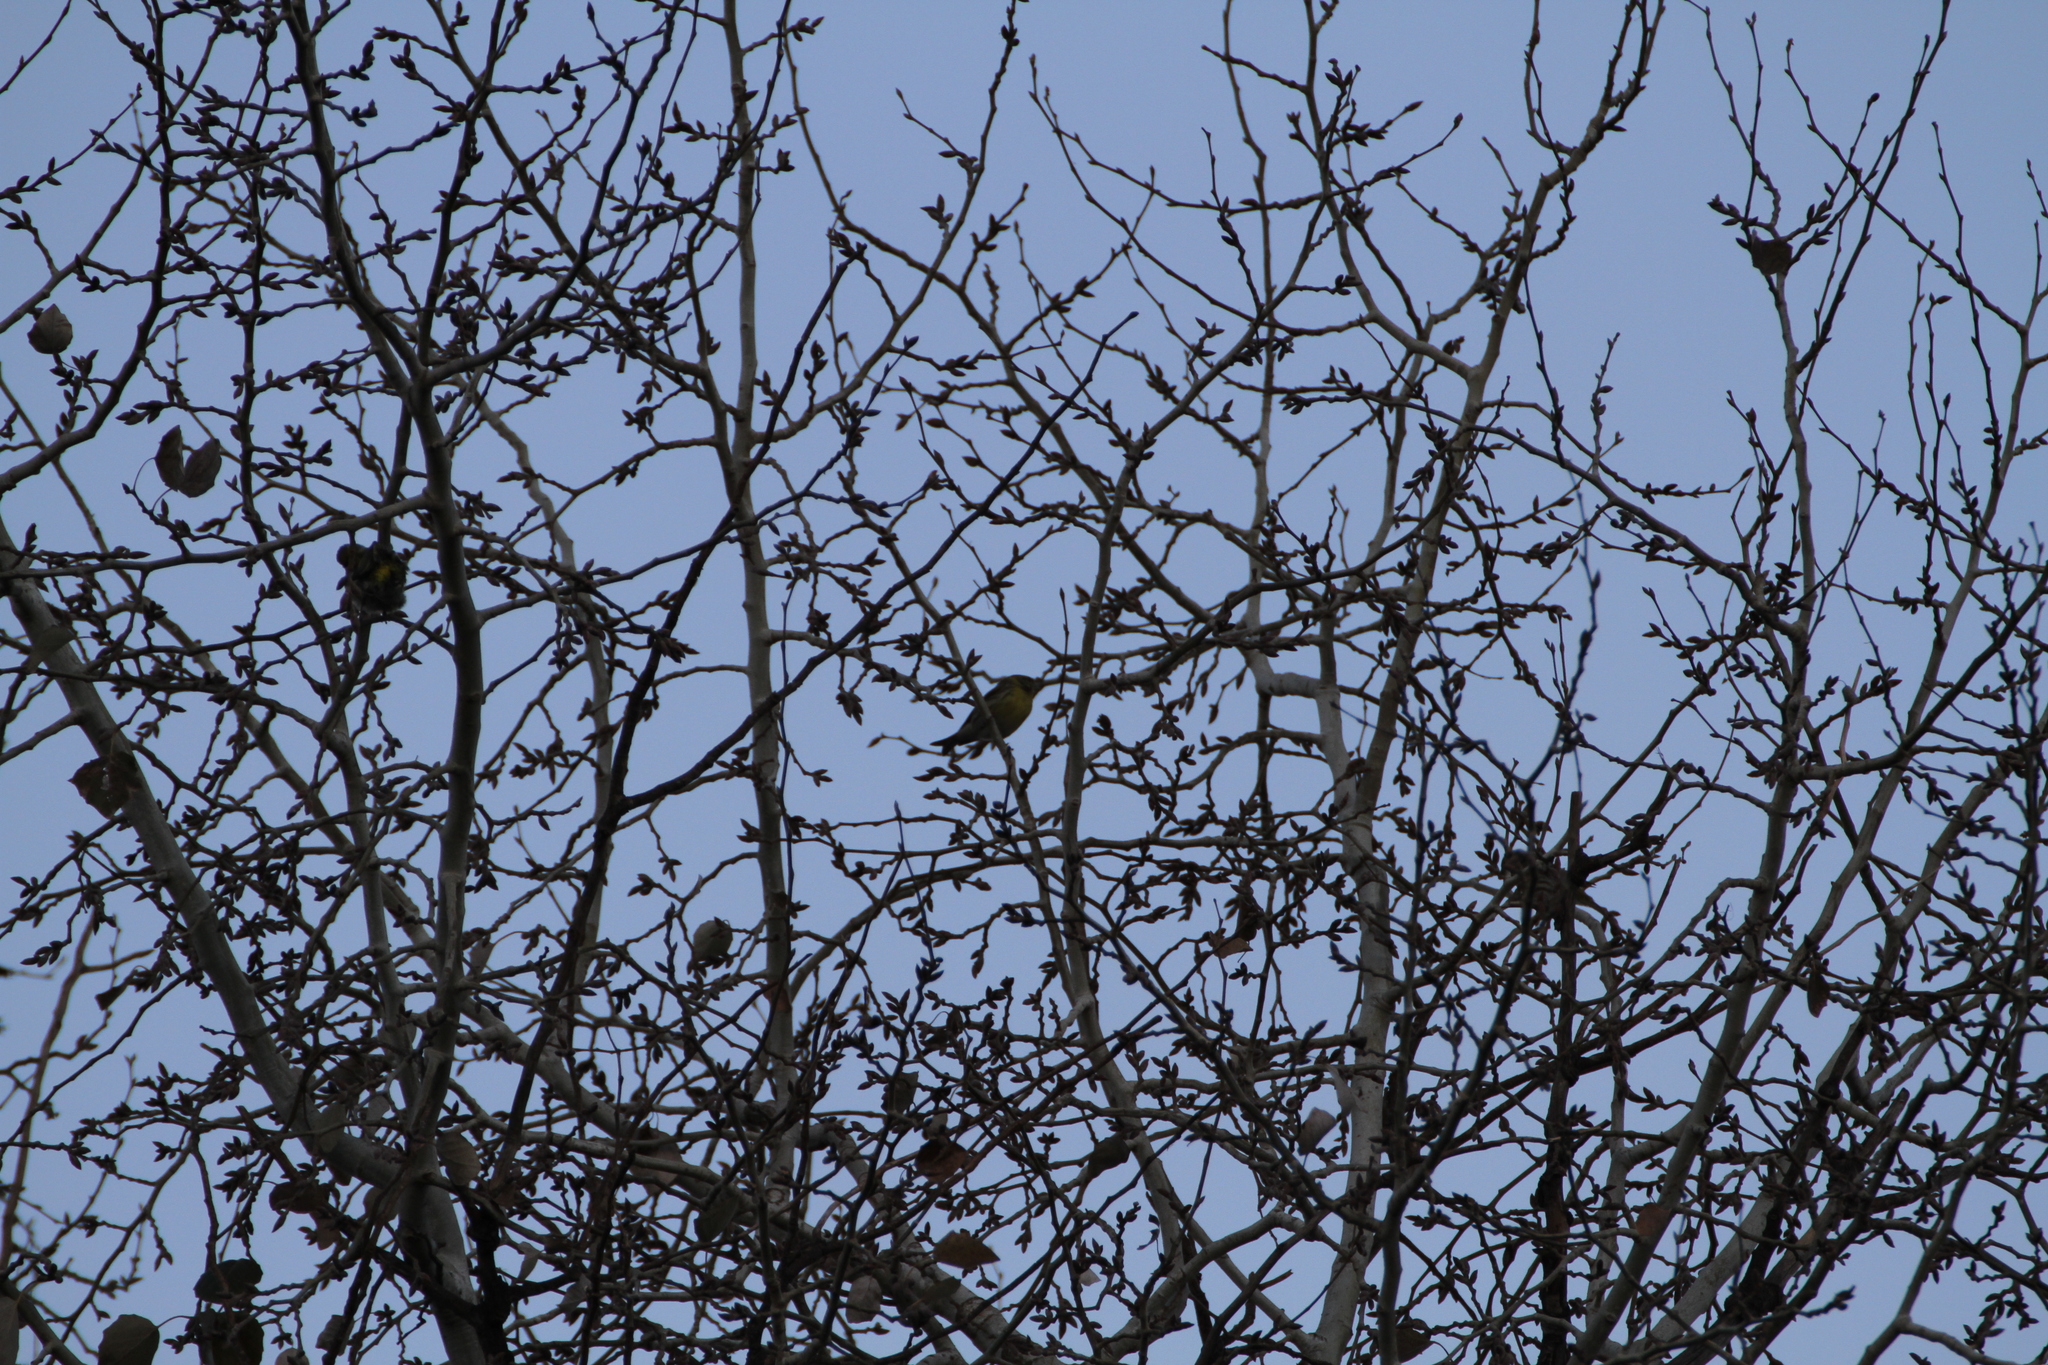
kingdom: Animalia
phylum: Chordata
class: Aves
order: Passeriformes
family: Fringillidae
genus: Serinus
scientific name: Serinus serinus
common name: European serin
